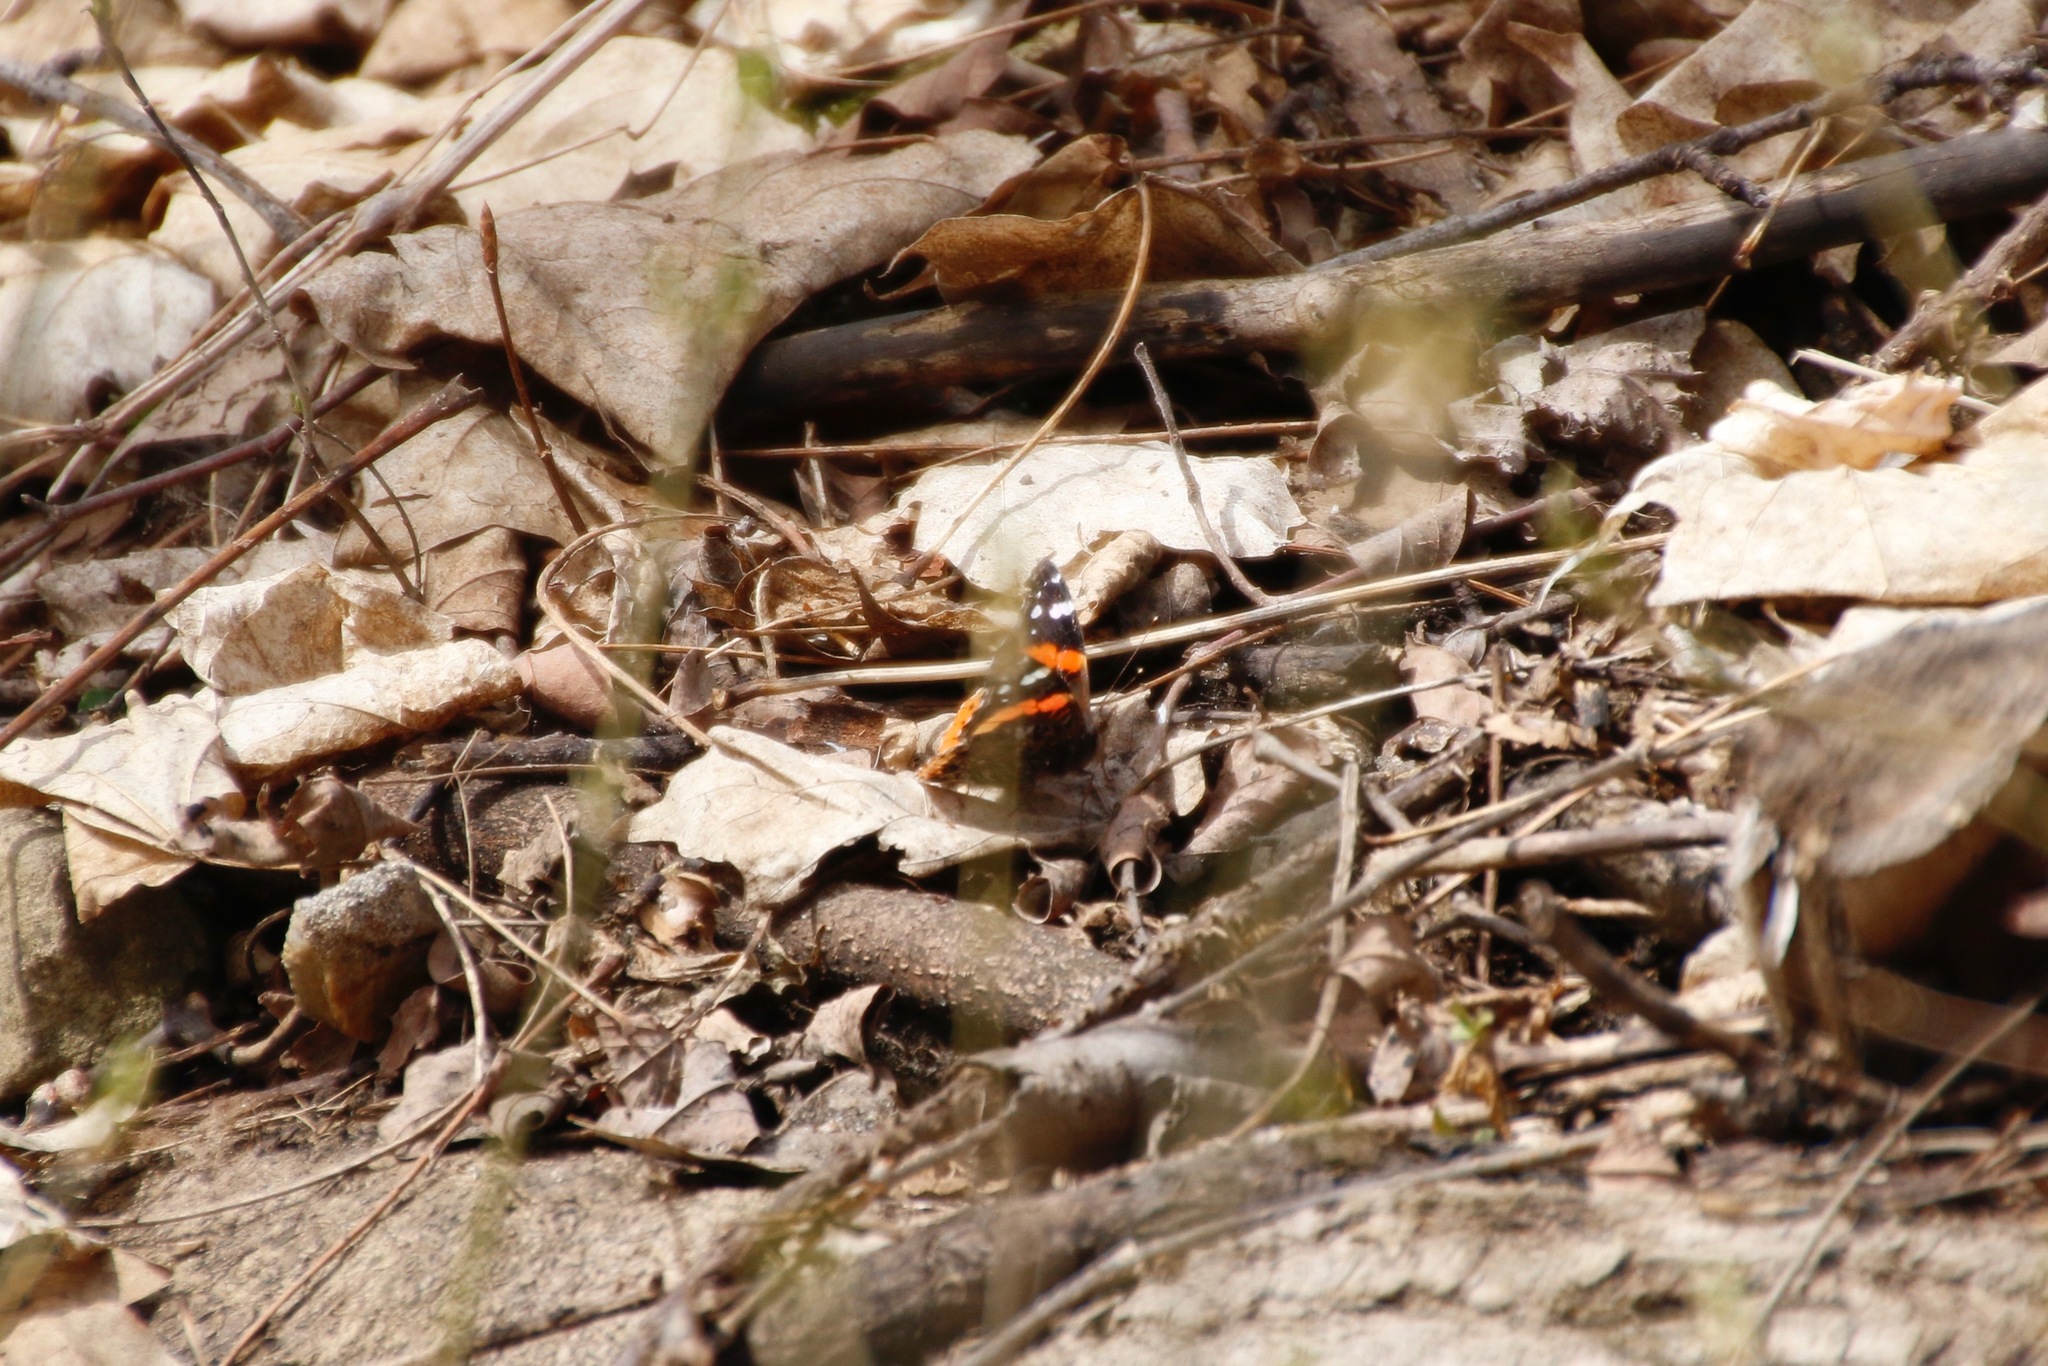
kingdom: Animalia
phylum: Arthropoda
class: Insecta
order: Lepidoptera
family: Nymphalidae
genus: Vanessa
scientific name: Vanessa atalanta
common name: Red admiral
